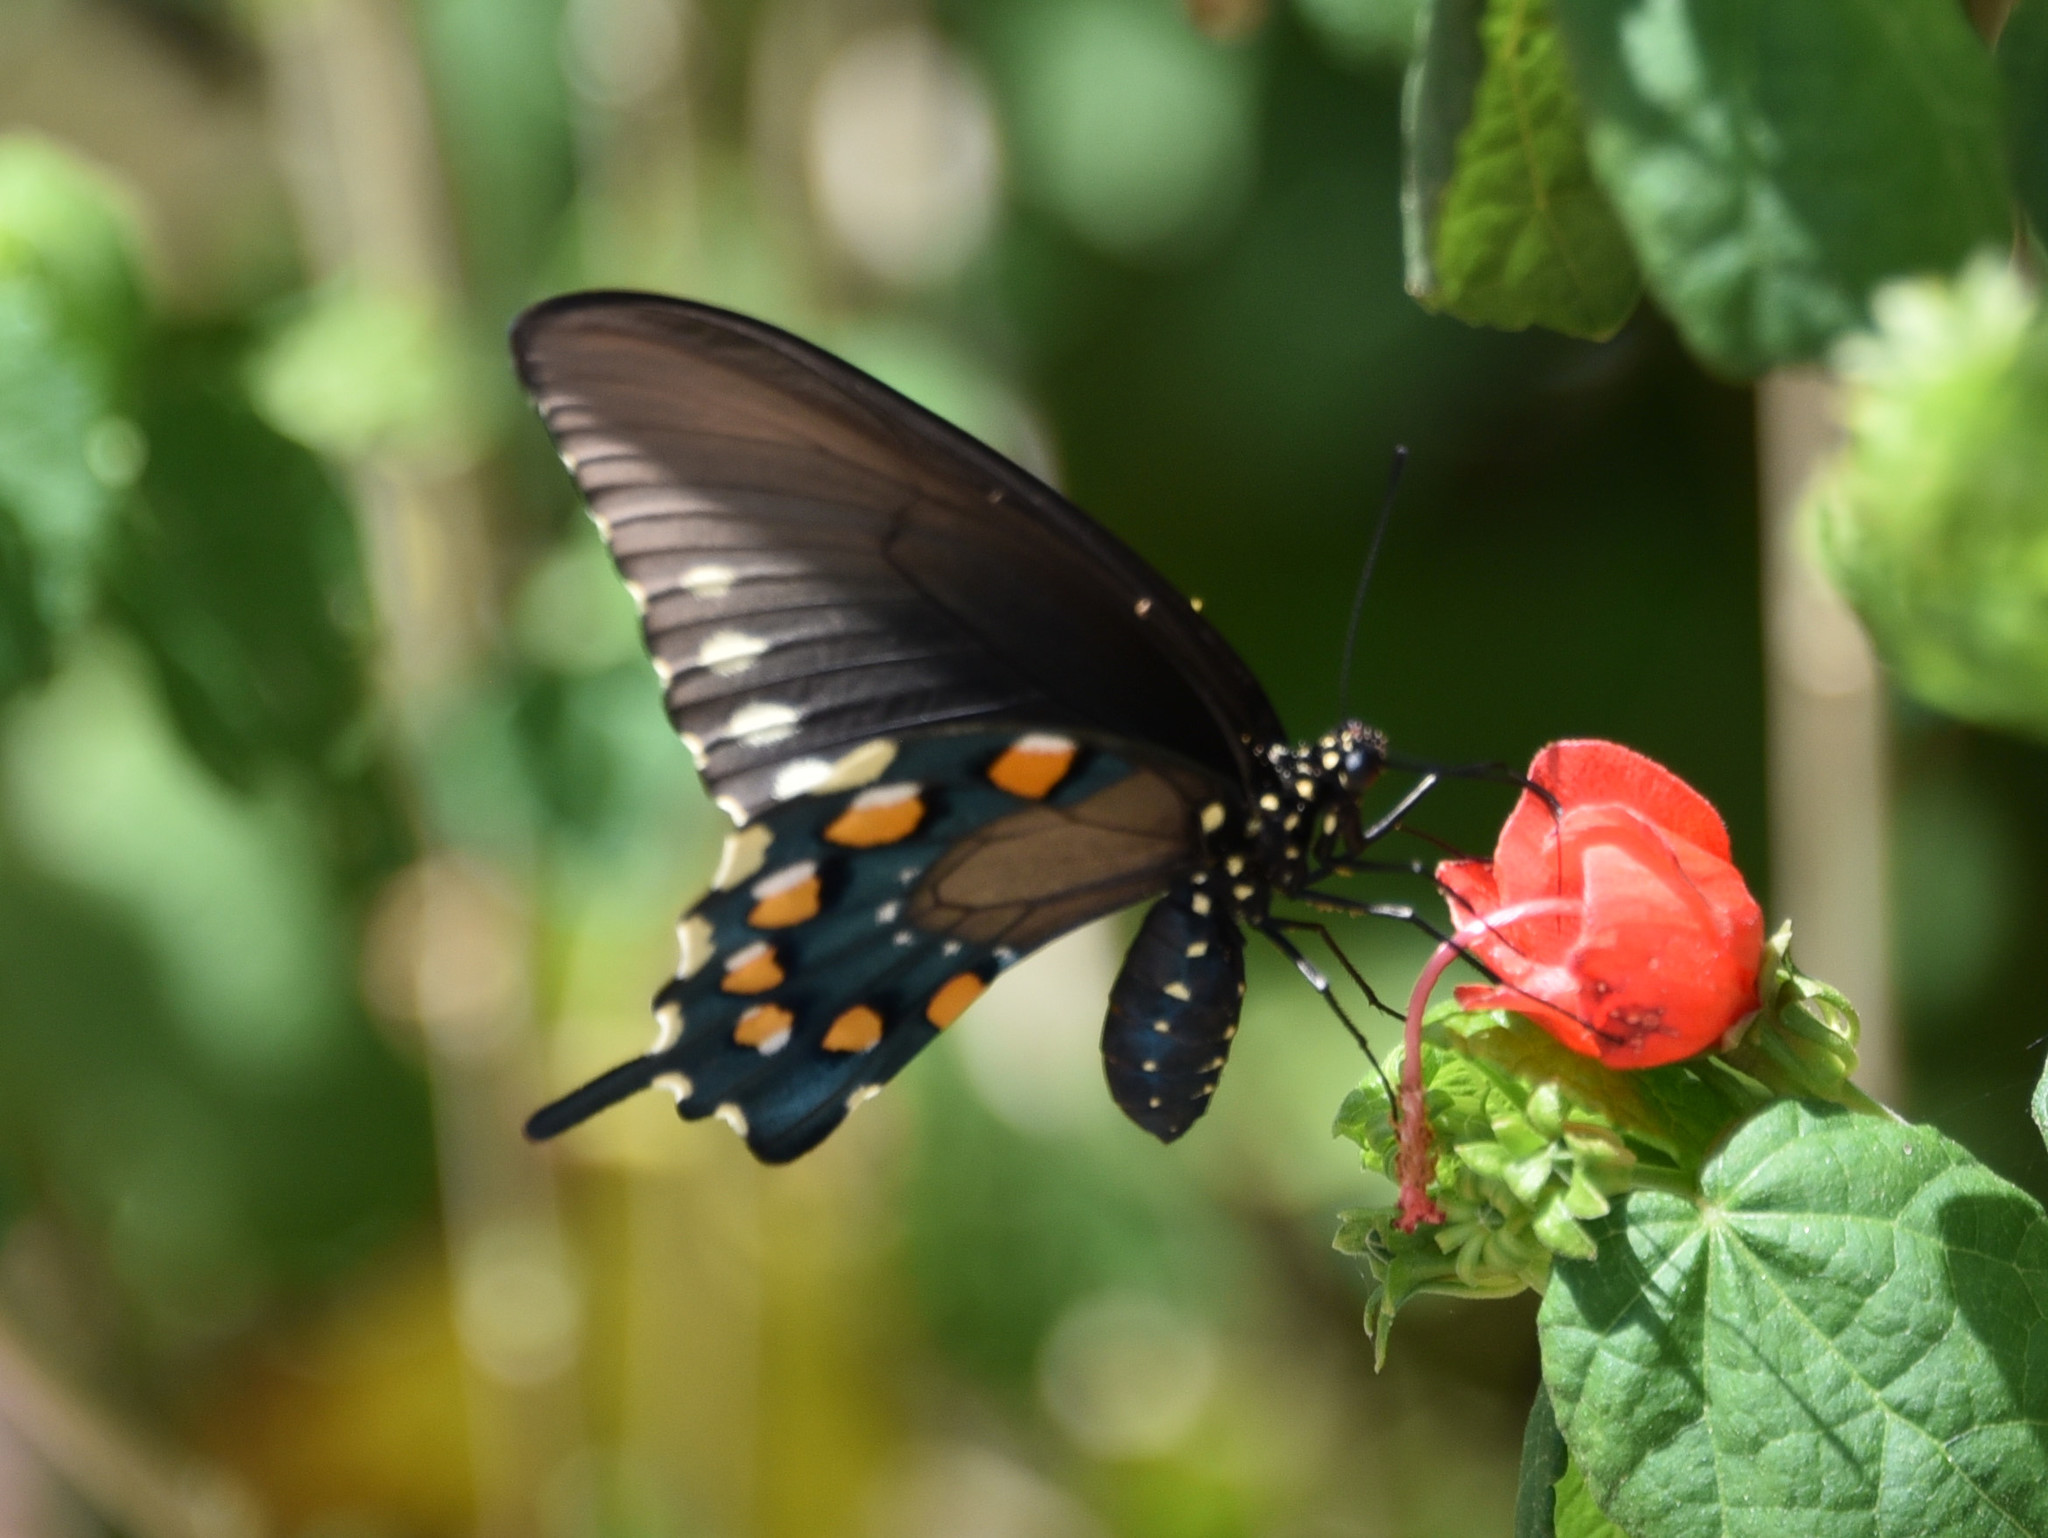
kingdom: Animalia
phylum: Arthropoda
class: Insecta
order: Lepidoptera
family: Papilionidae
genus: Battus
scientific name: Battus philenor
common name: Pipevine swallowtail
